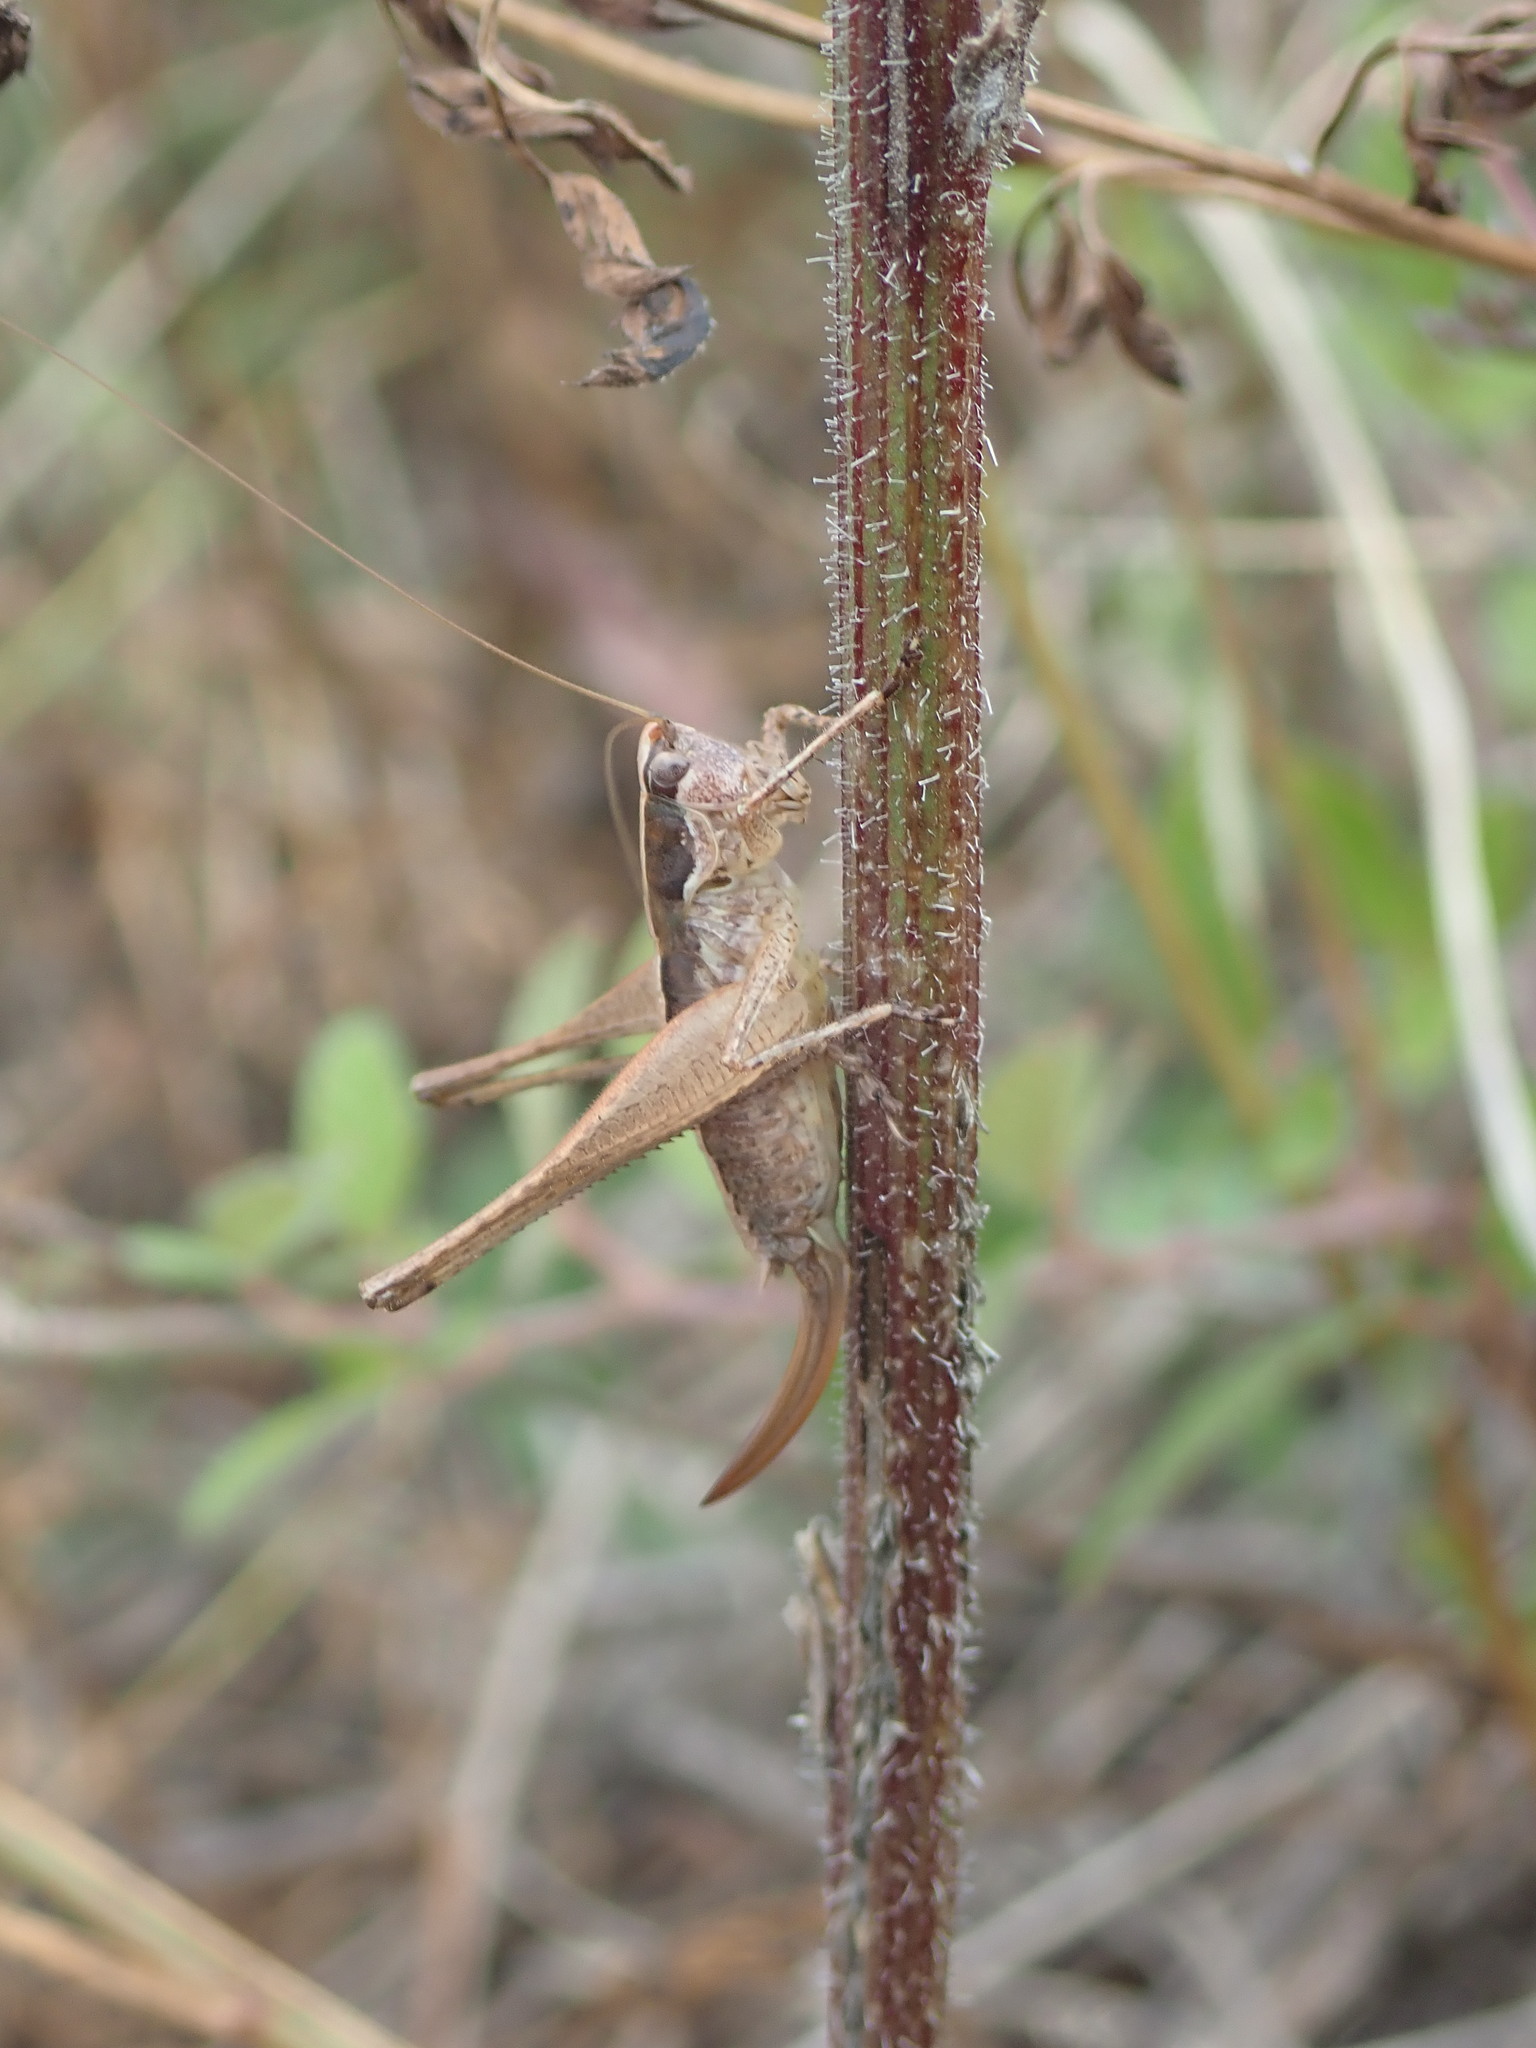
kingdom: Animalia
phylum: Arthropoda
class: Insecta
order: Orthoptera
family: Tettigoniidae
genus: Yersinella
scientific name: Yersinella raymondii
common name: Raymond's bush-cricket
